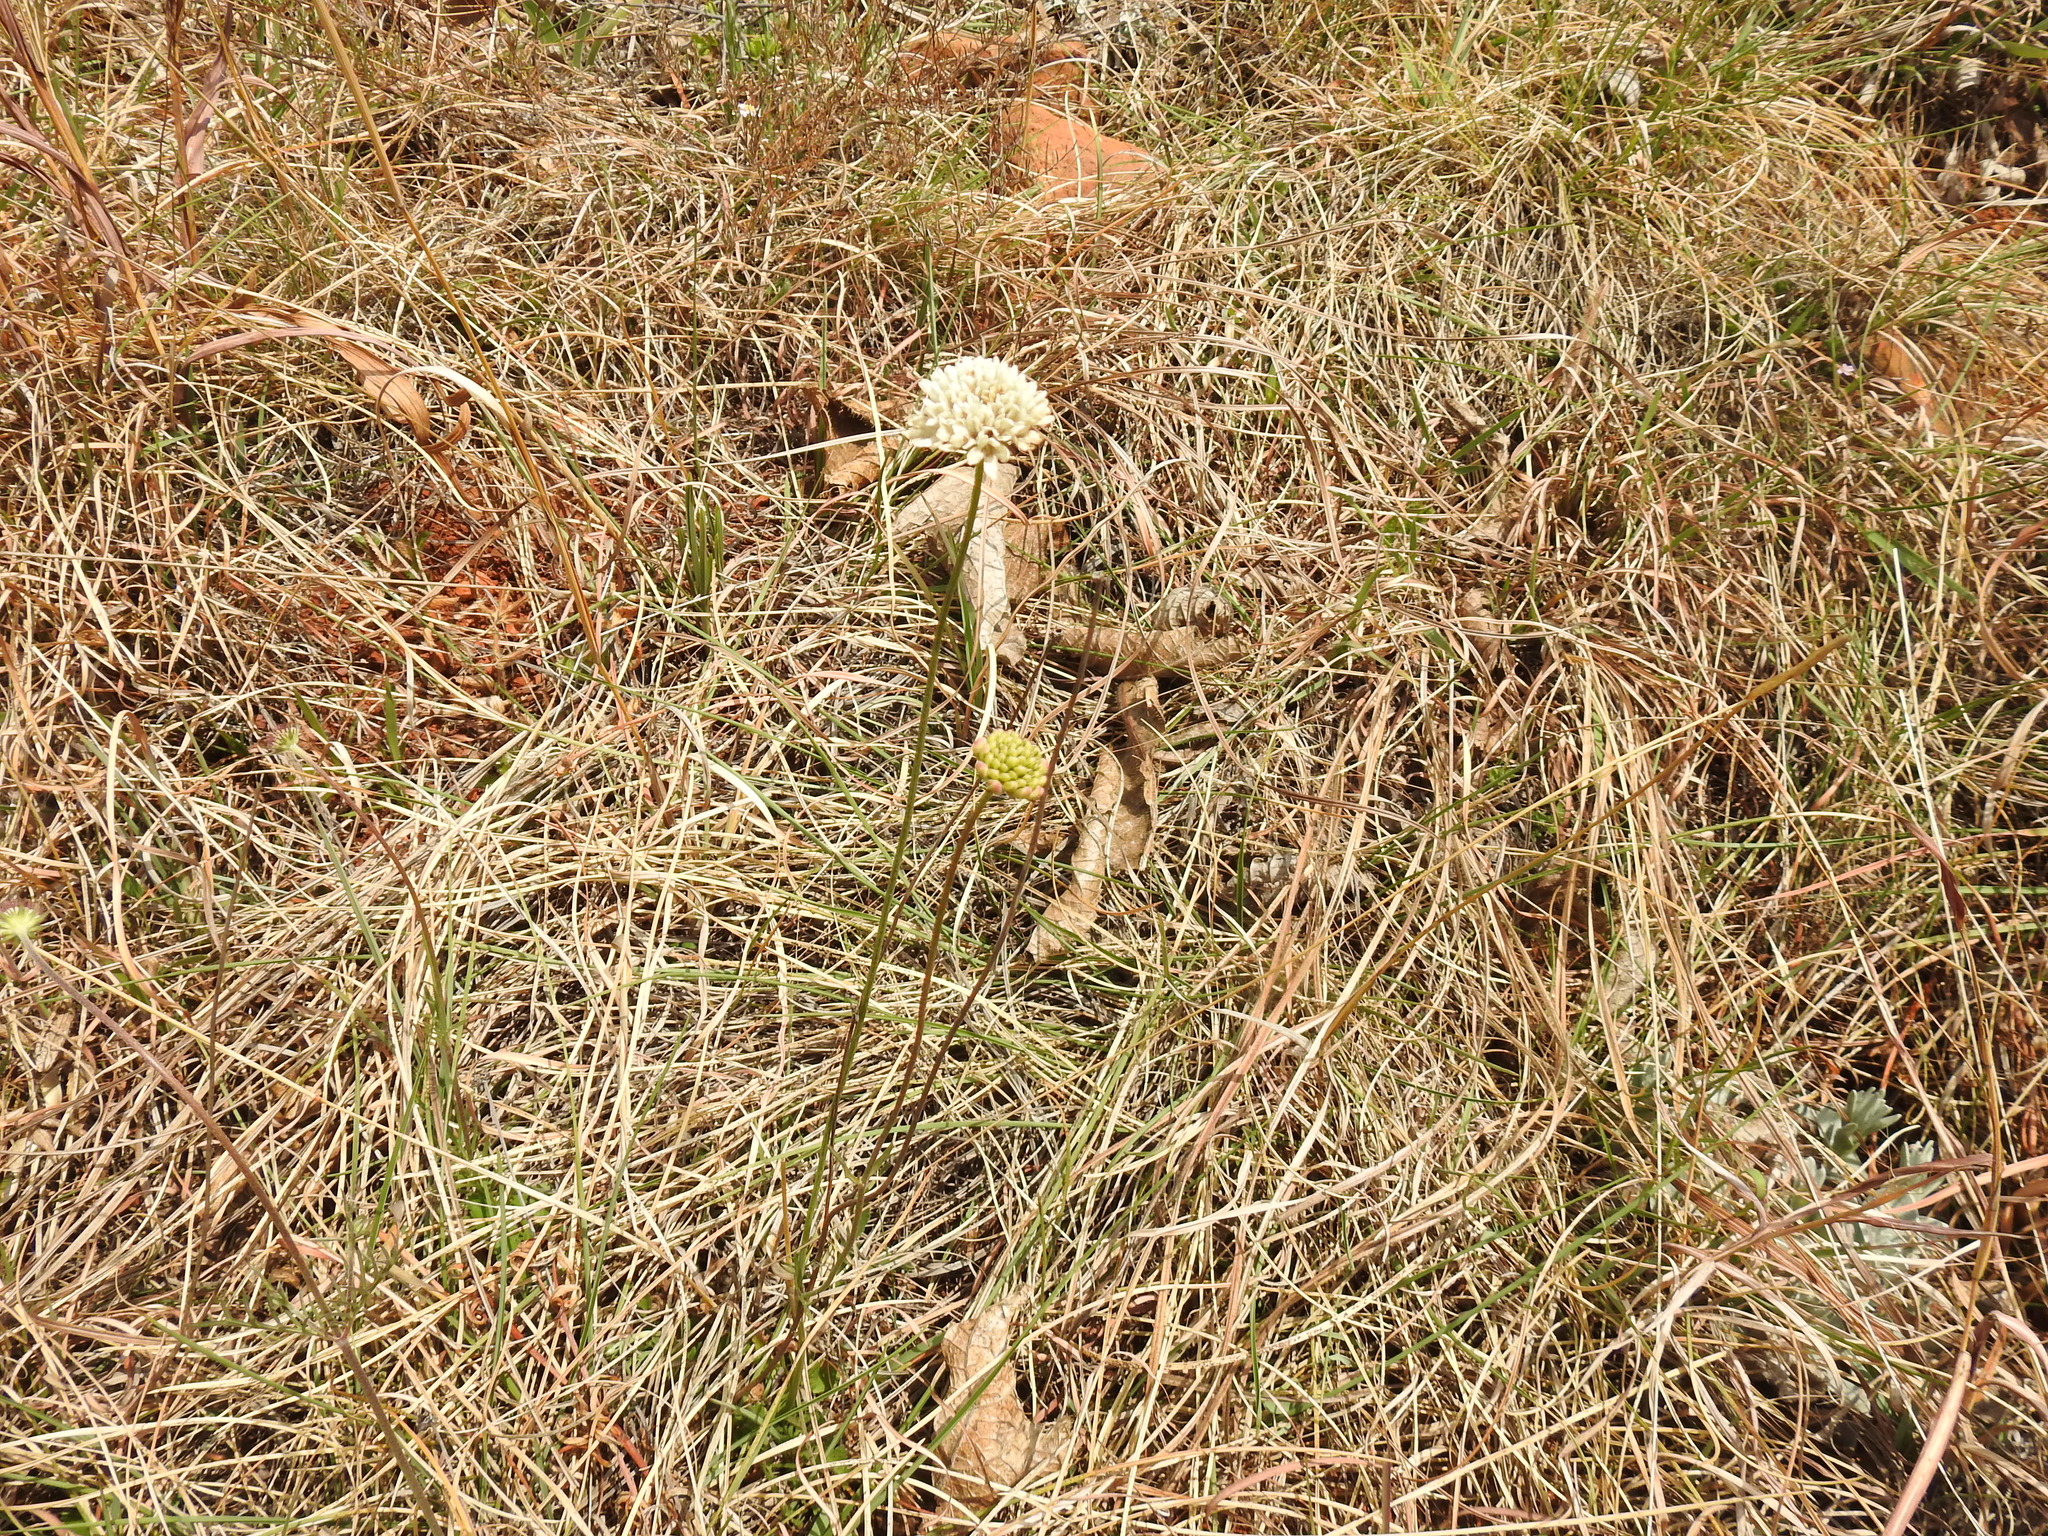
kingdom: Plantae
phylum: Tracheophyta
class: Magnoliopsida
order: Dipsacales
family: Caprifoliaceae
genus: Cephalaria
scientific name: Cephalaria zeyheriana
